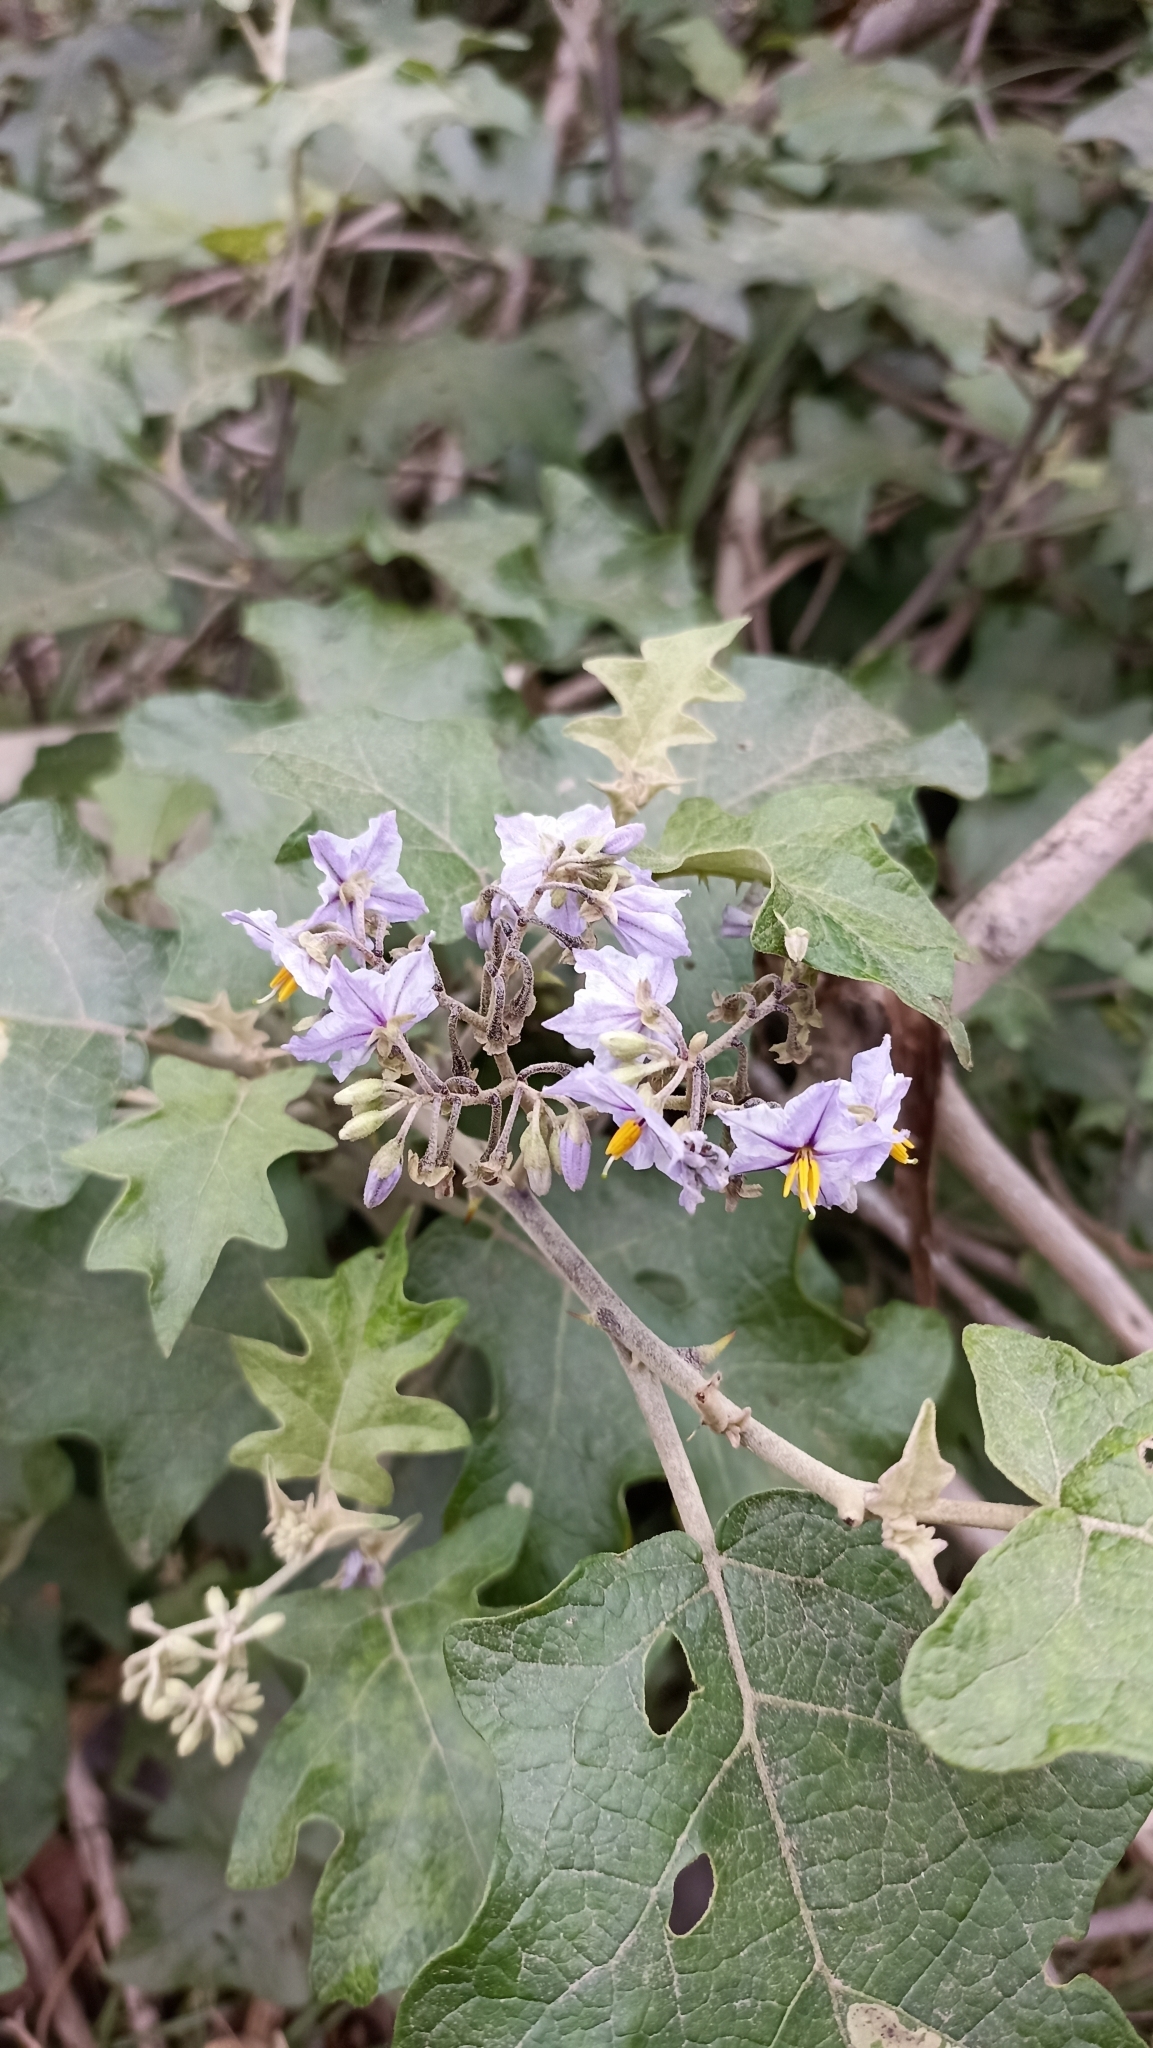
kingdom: Plantae
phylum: Tracheophyta
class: Magnoliopsida
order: Solanales
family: Solanaceae
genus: Solanum
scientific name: Solanum paniculatum
